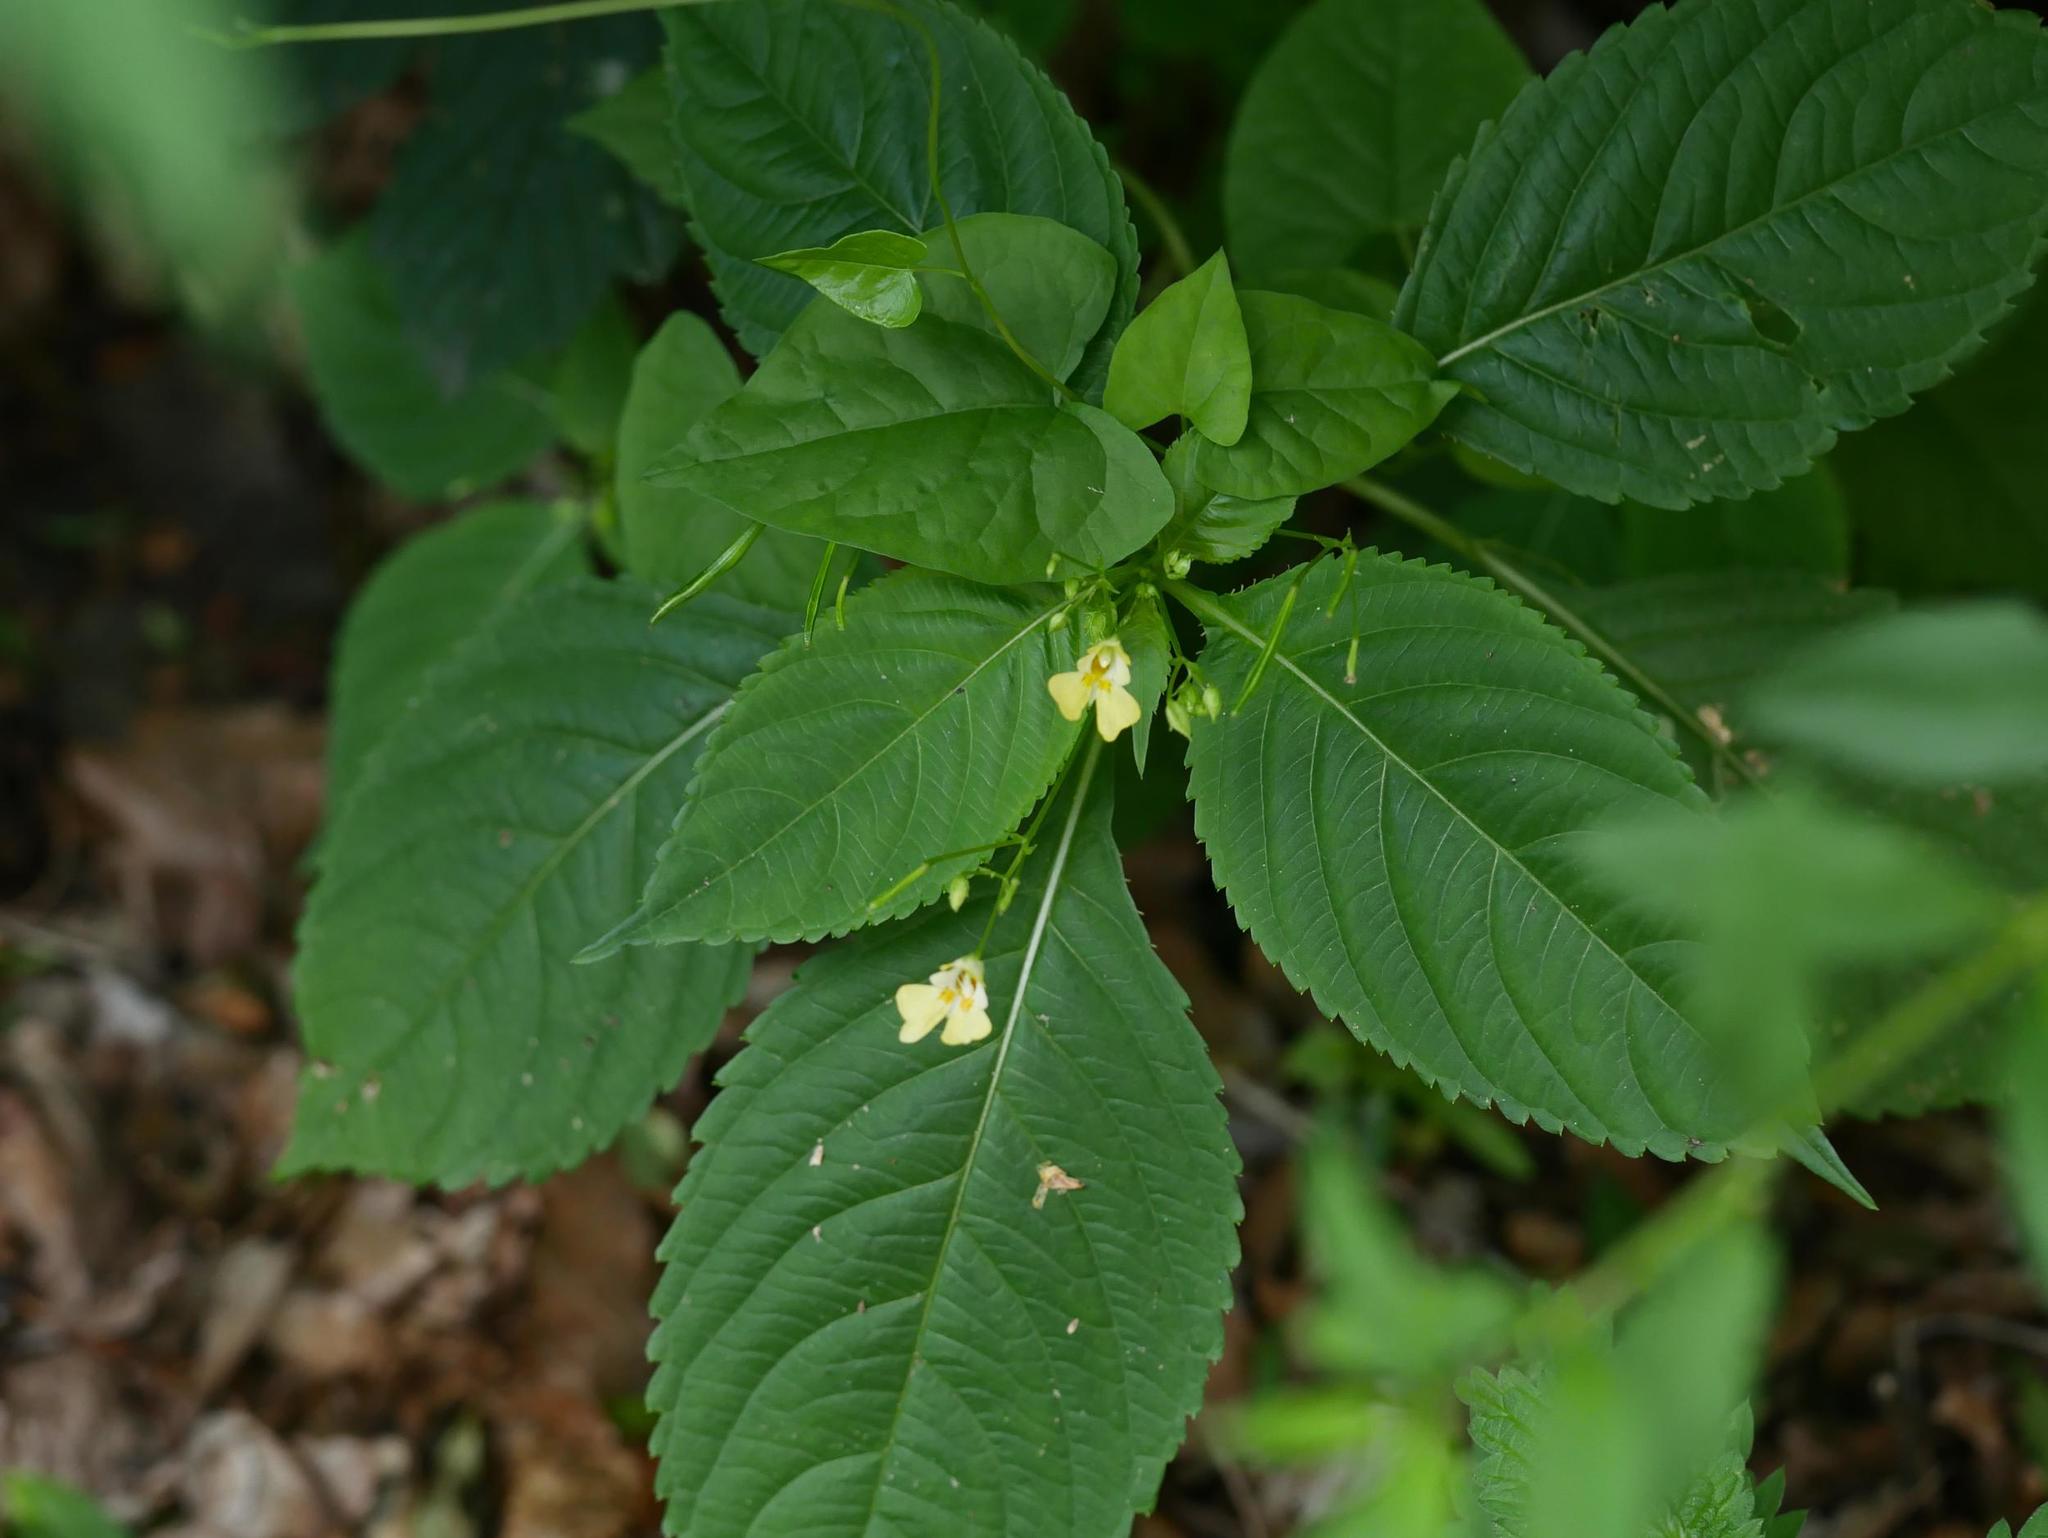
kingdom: Plantae
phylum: Tracheophyta
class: Magnoliopsida
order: Ericales
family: Balsaminaceae
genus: Impatiens
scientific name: Impatiens parviflora
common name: Small balsam
